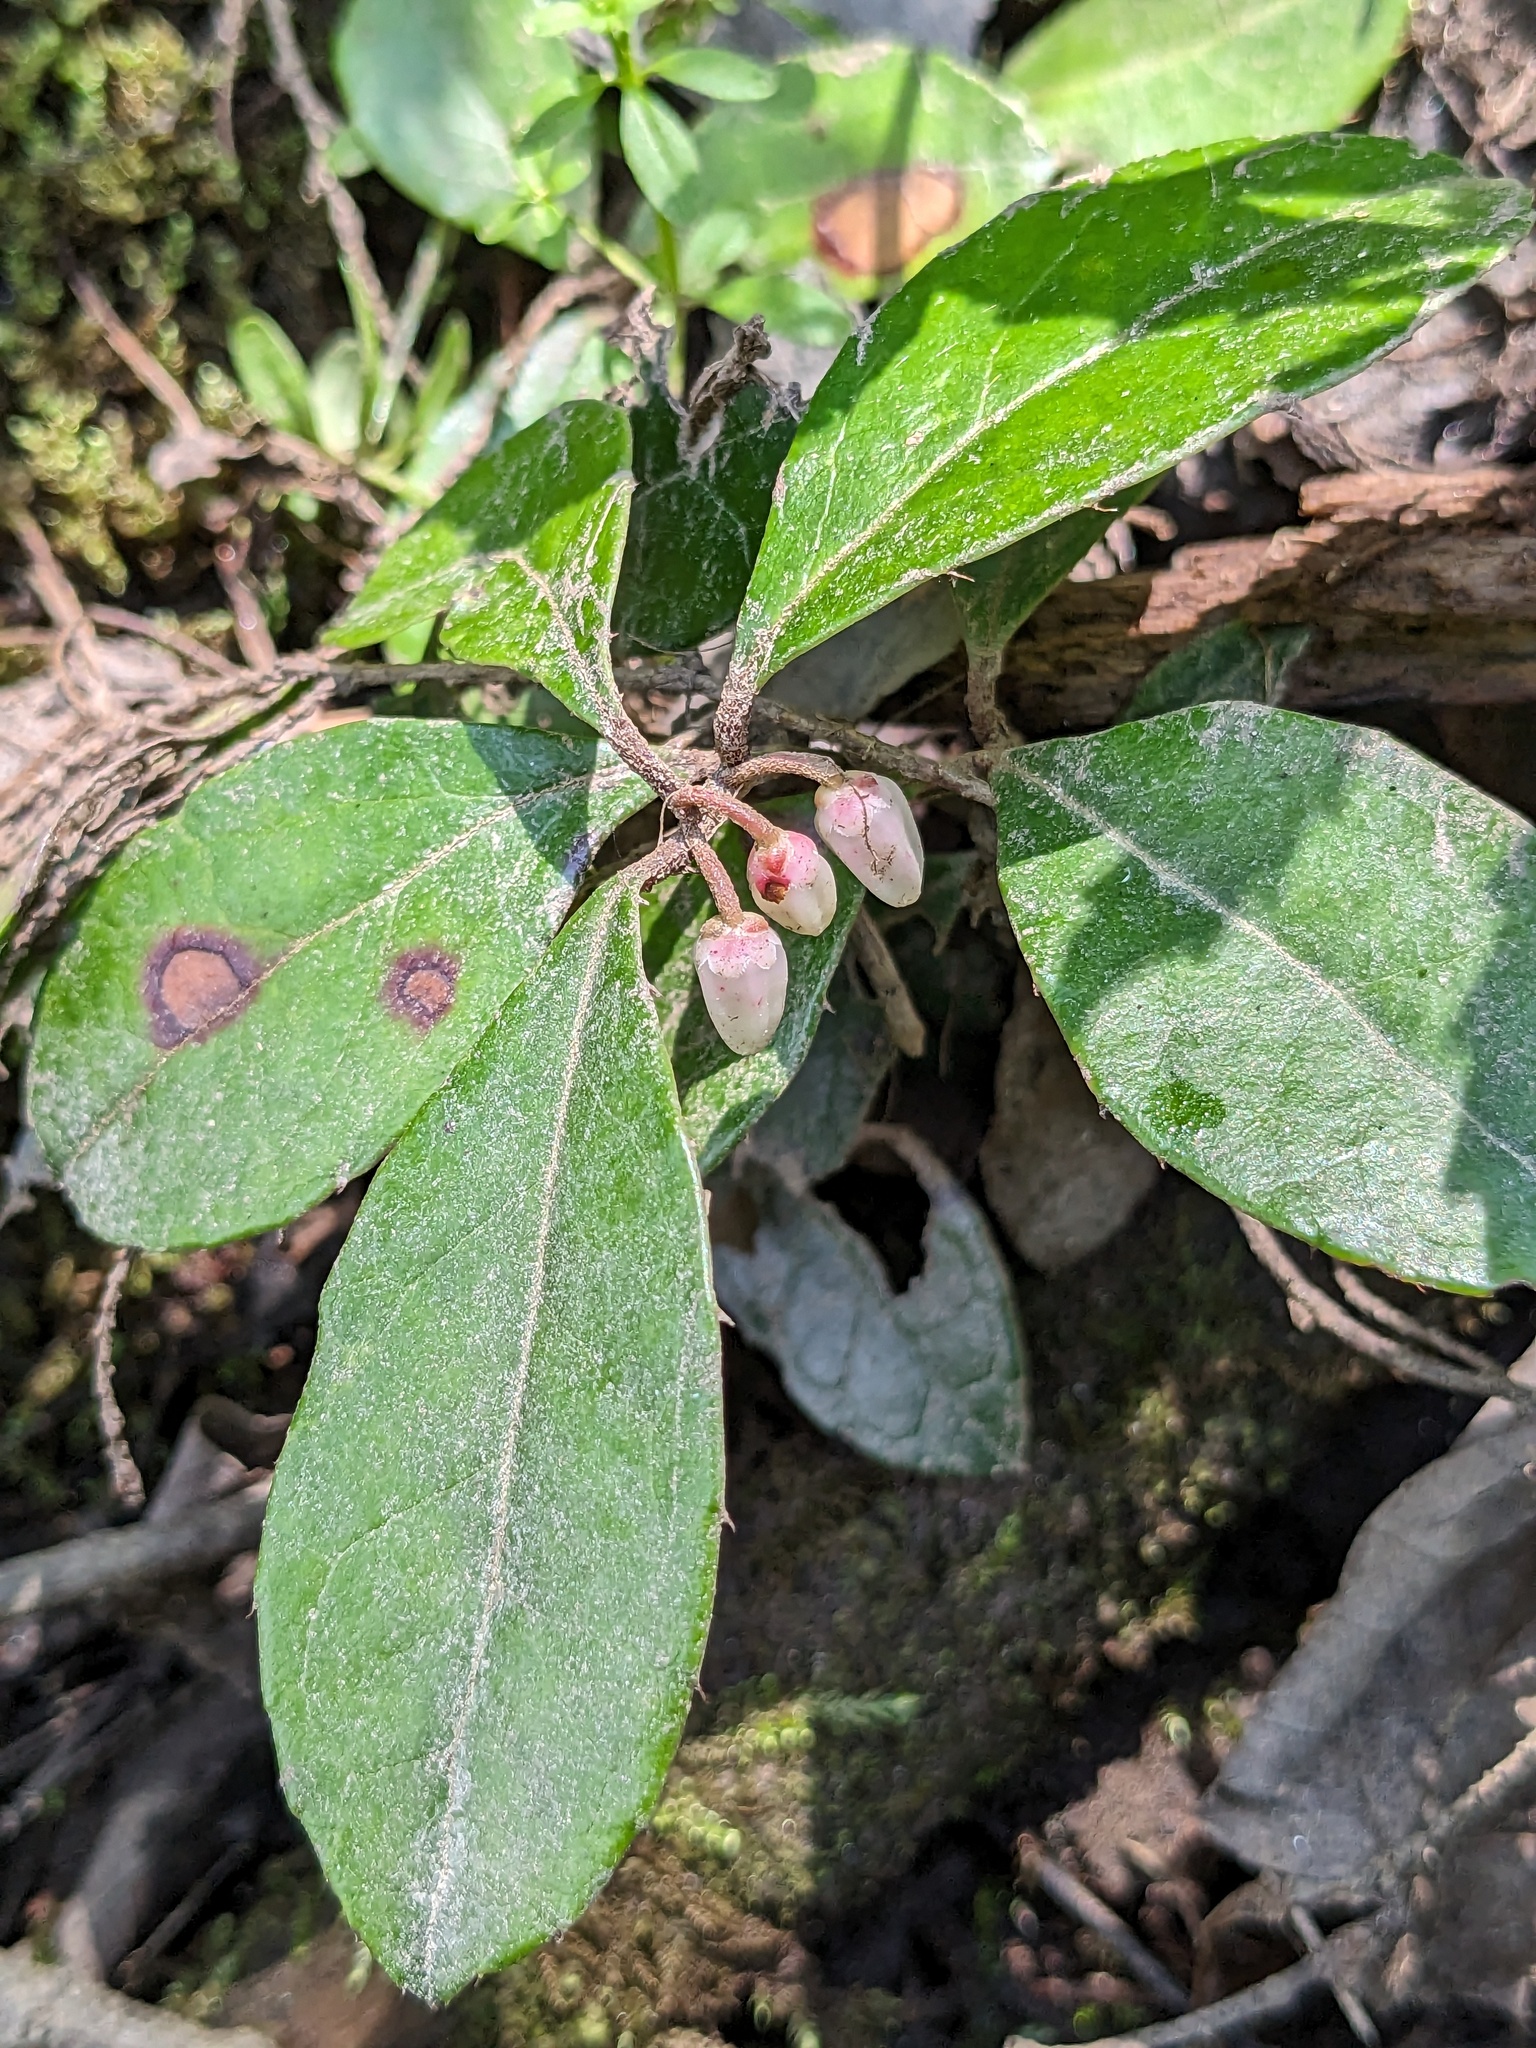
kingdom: Plantae
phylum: Tracheophyta
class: Magnoliopsida
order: Ericales
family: Ericaceae
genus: Gaultheria
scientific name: Gaultheria procumbens
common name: Checkerberry
